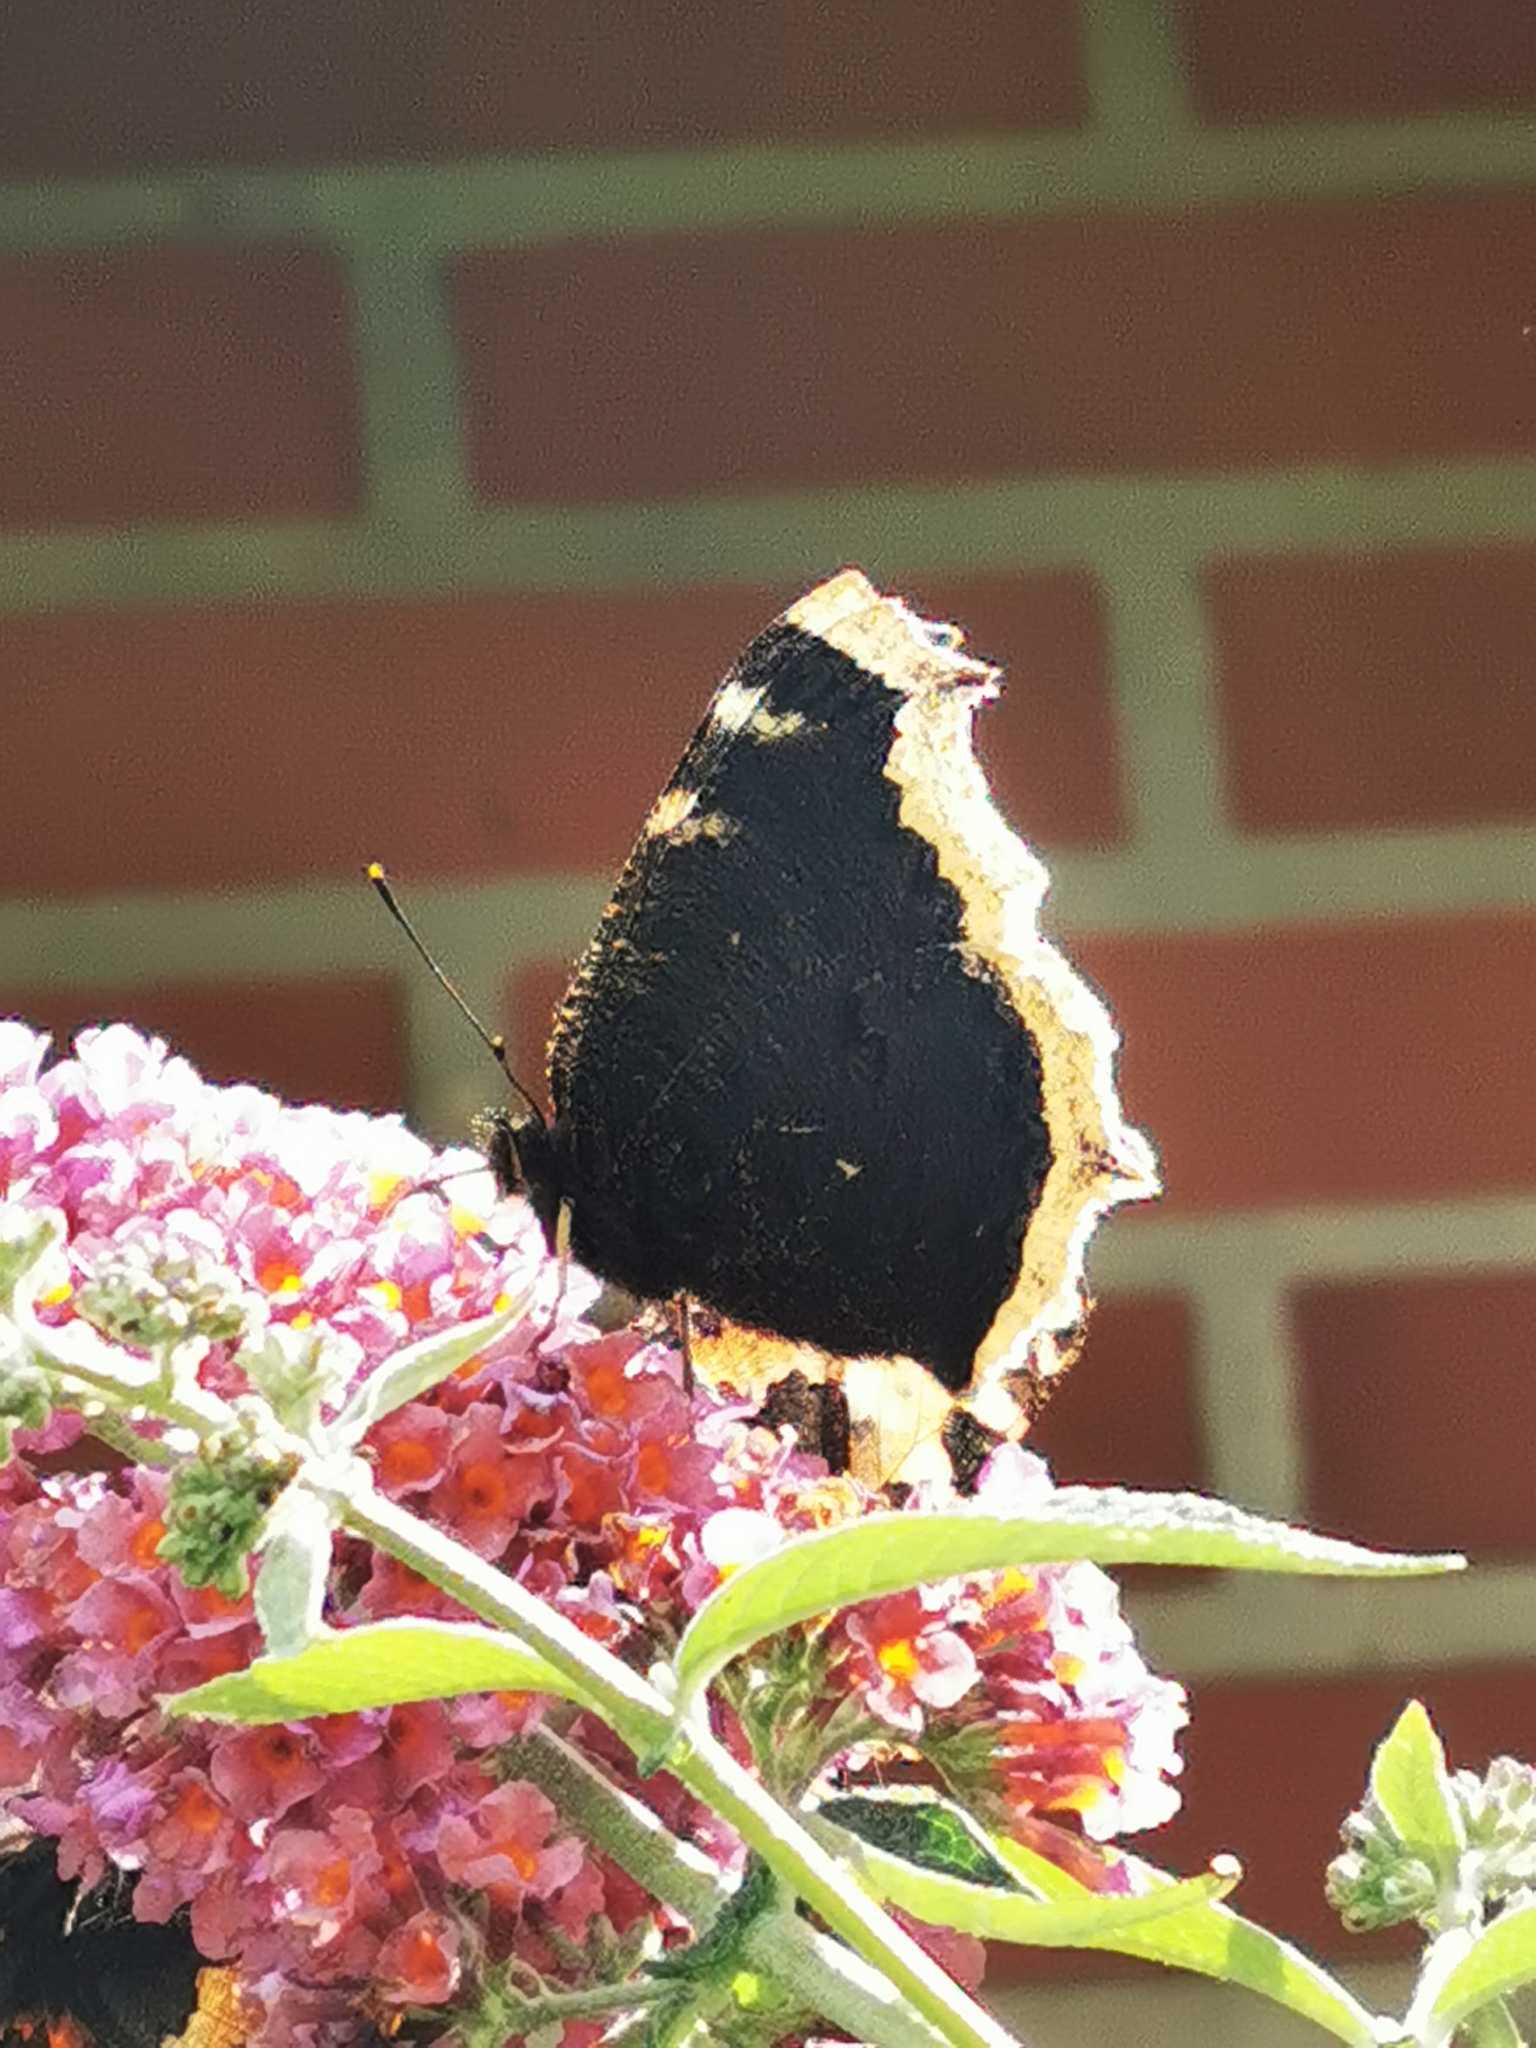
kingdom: Animalia
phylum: Arthropoda
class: Insecta
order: Lepidoptera
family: Nymphalidae
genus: Nymphalis
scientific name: Nymphalis antiopa
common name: Camberwell beauty
